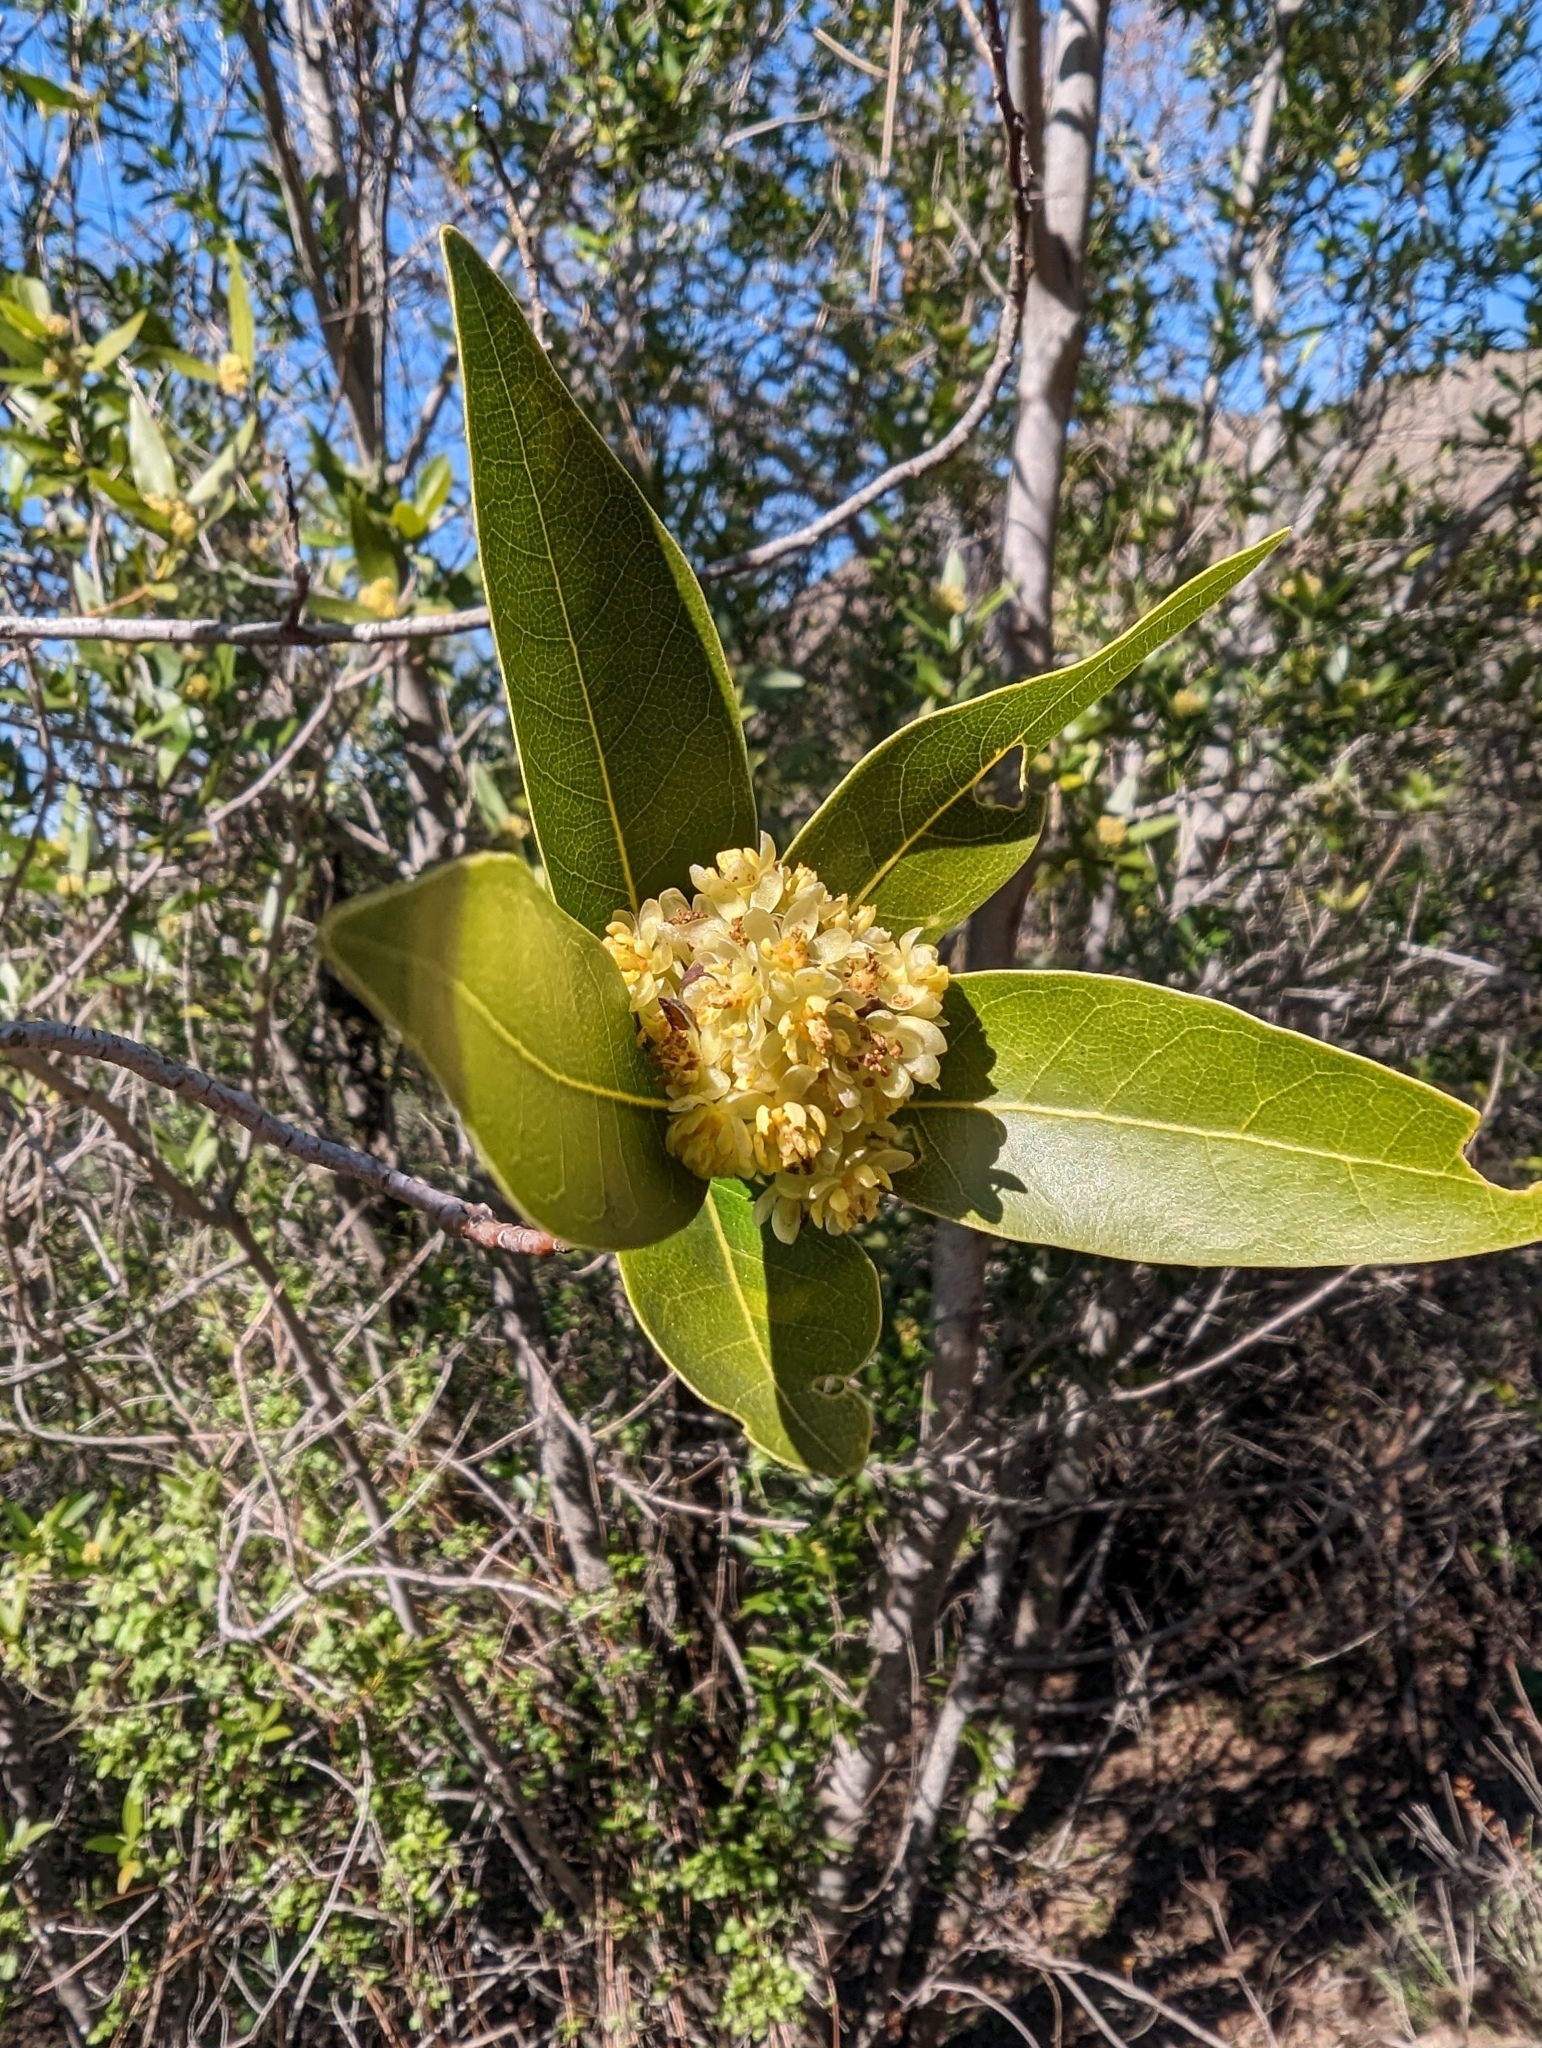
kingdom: Plantae
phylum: Tracheophyta
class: Magnoliopsida
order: Laurales
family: Lauraceae
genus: Umbellularia
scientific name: Umbellularia californica
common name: California bay
